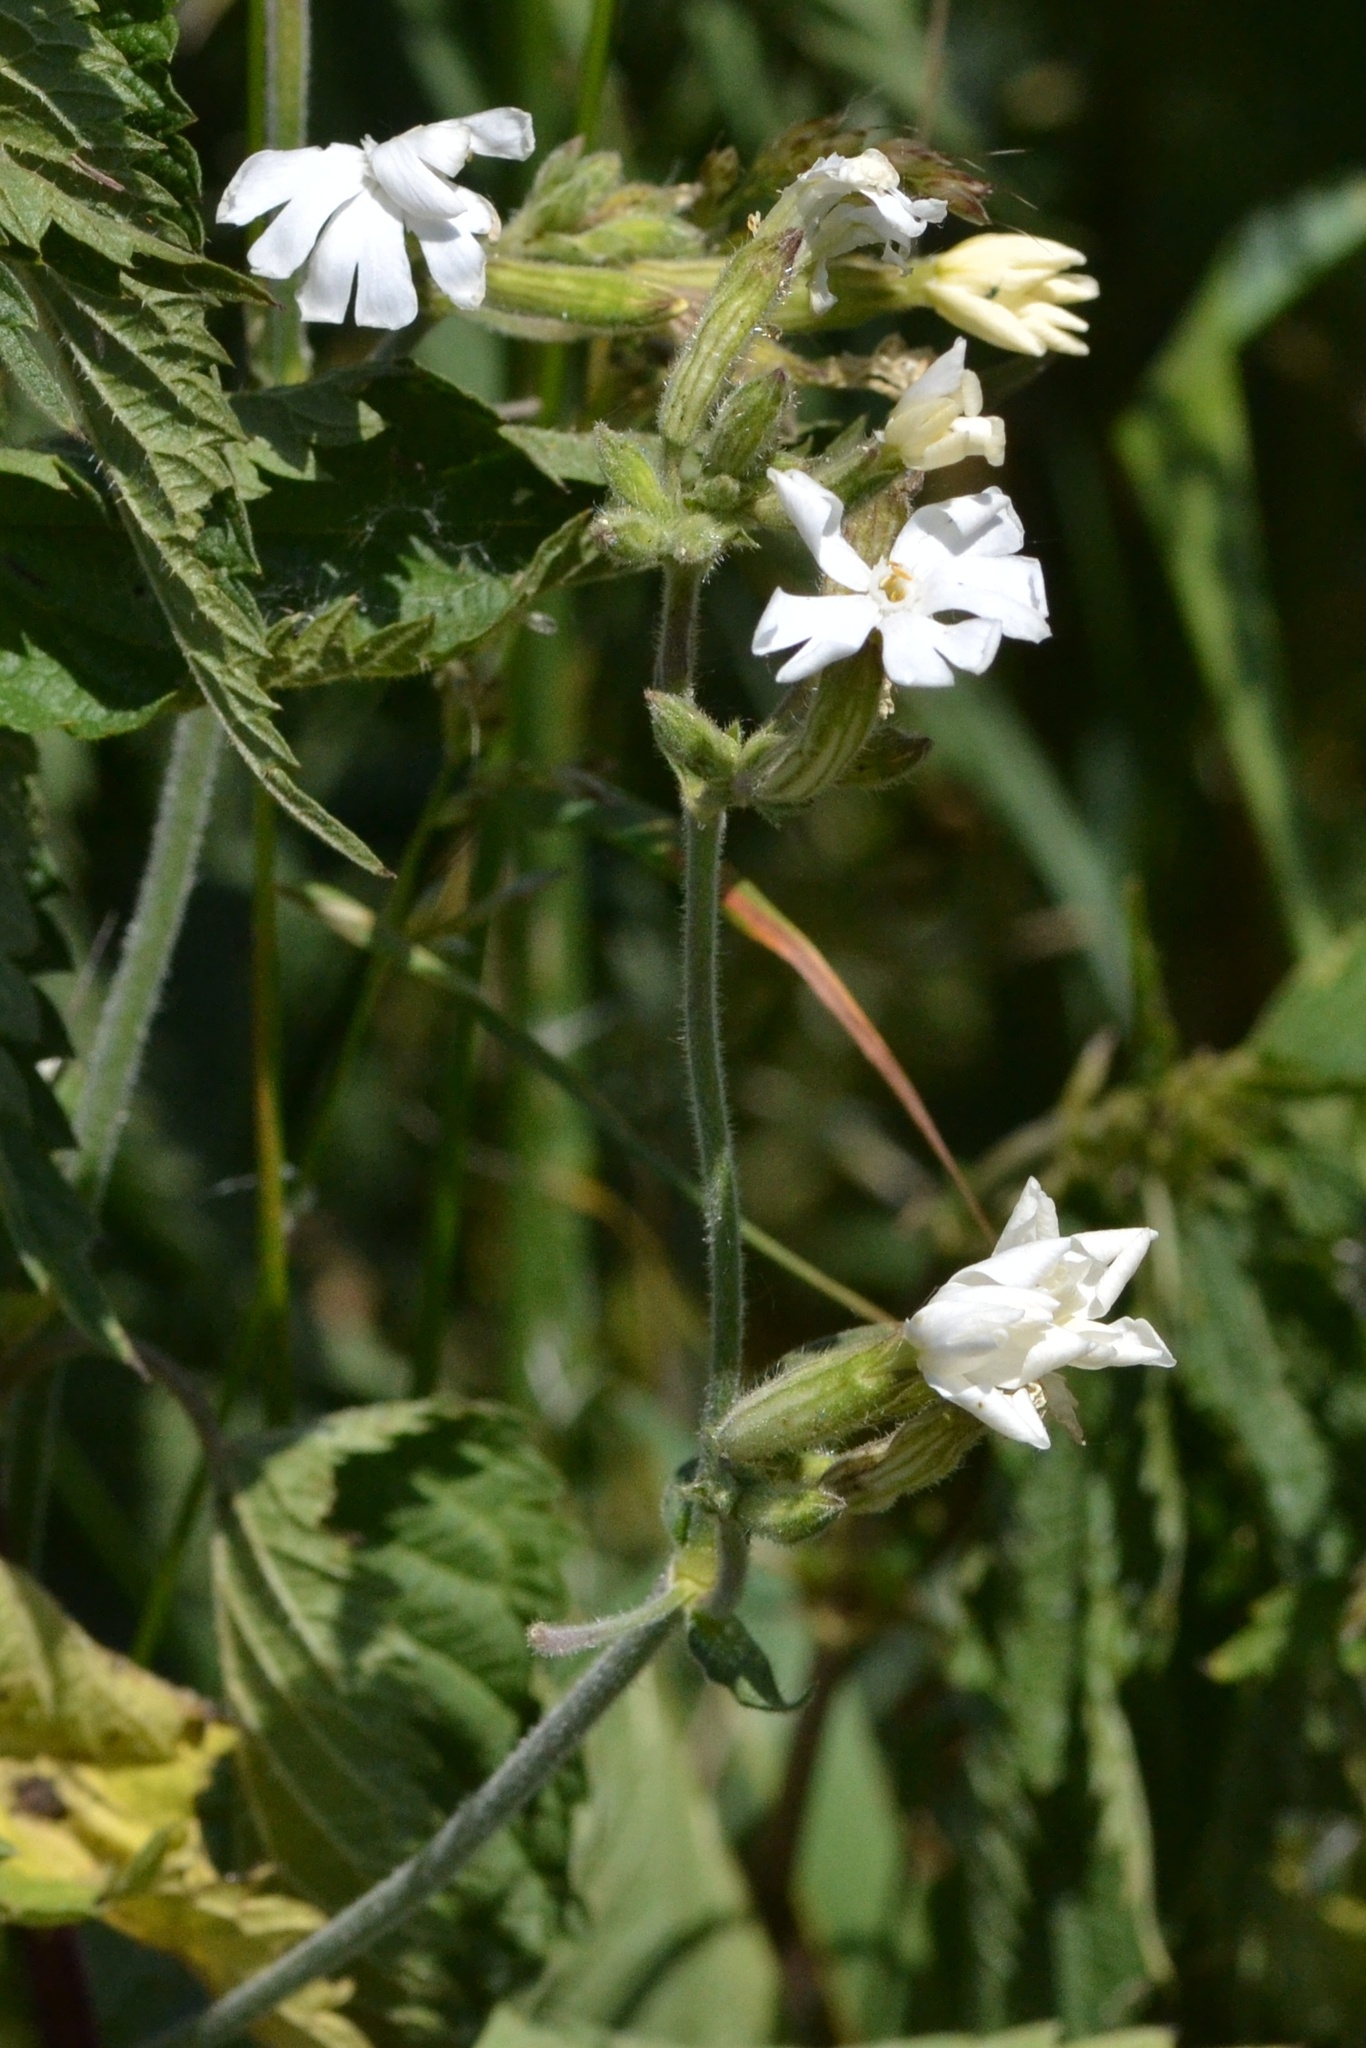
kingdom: Plantae
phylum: Tracheophyta
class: Magnoliopsida
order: Caryophyllales
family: Caryophyllaceae
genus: Silene
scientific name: Silene latifolia
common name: White campion
